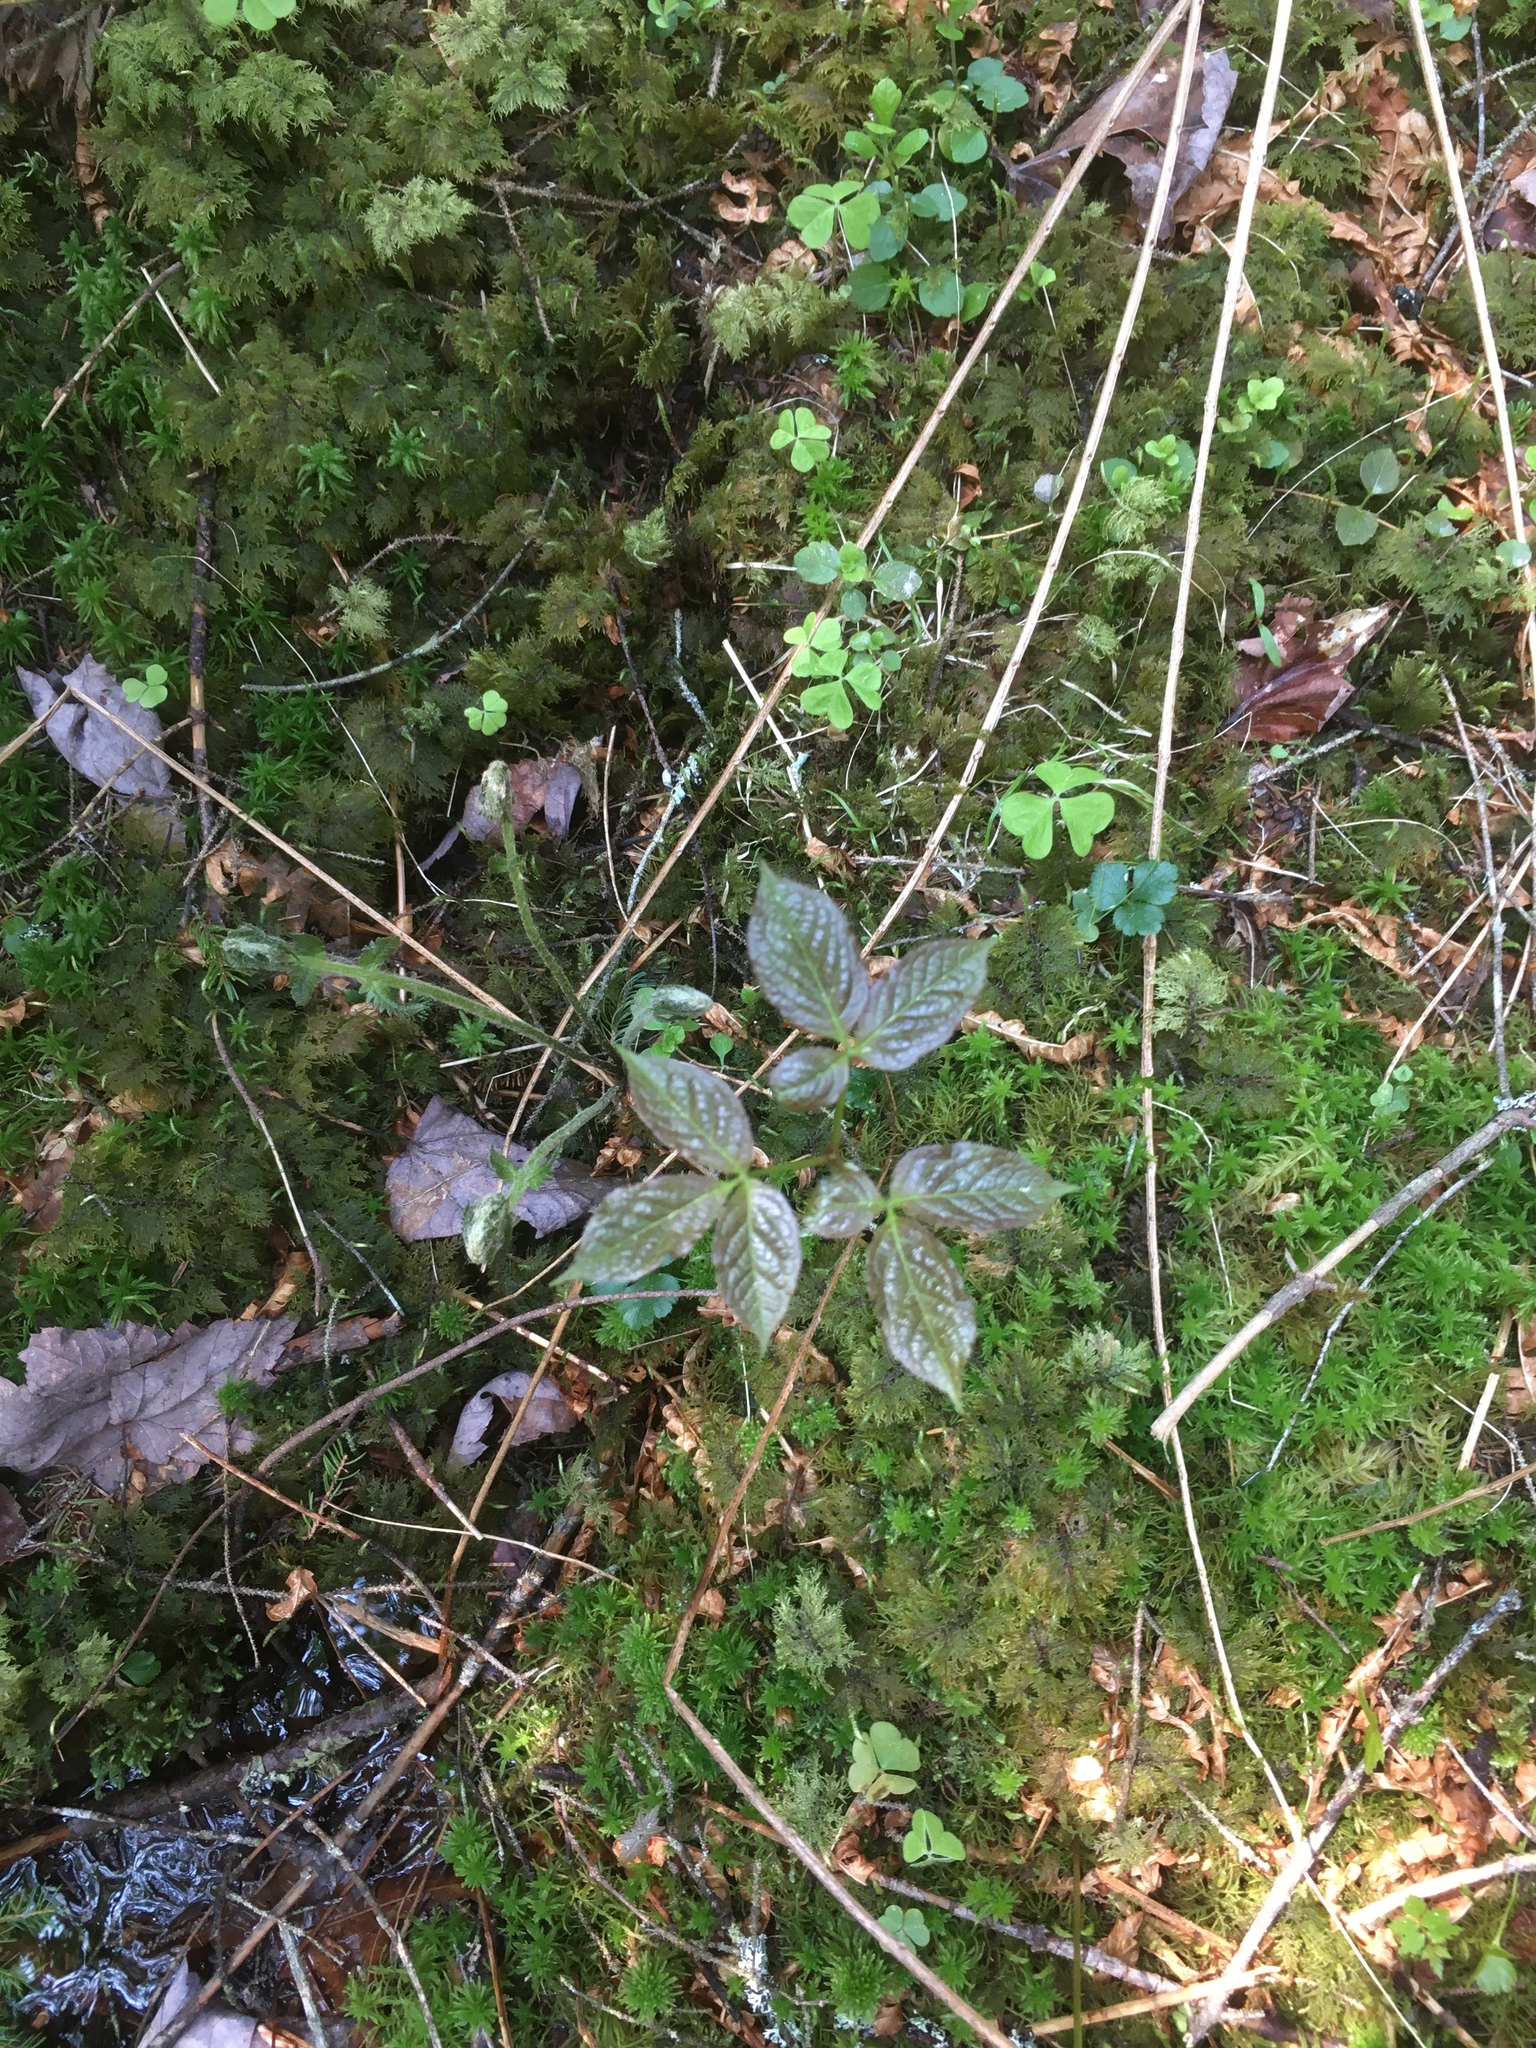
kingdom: Plantae
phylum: Tracheophyta
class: Magnoliopsida
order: Apiales
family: Araliaceae
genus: Aralia
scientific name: Aralia nudicaulis
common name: Wild sarsaparilla
